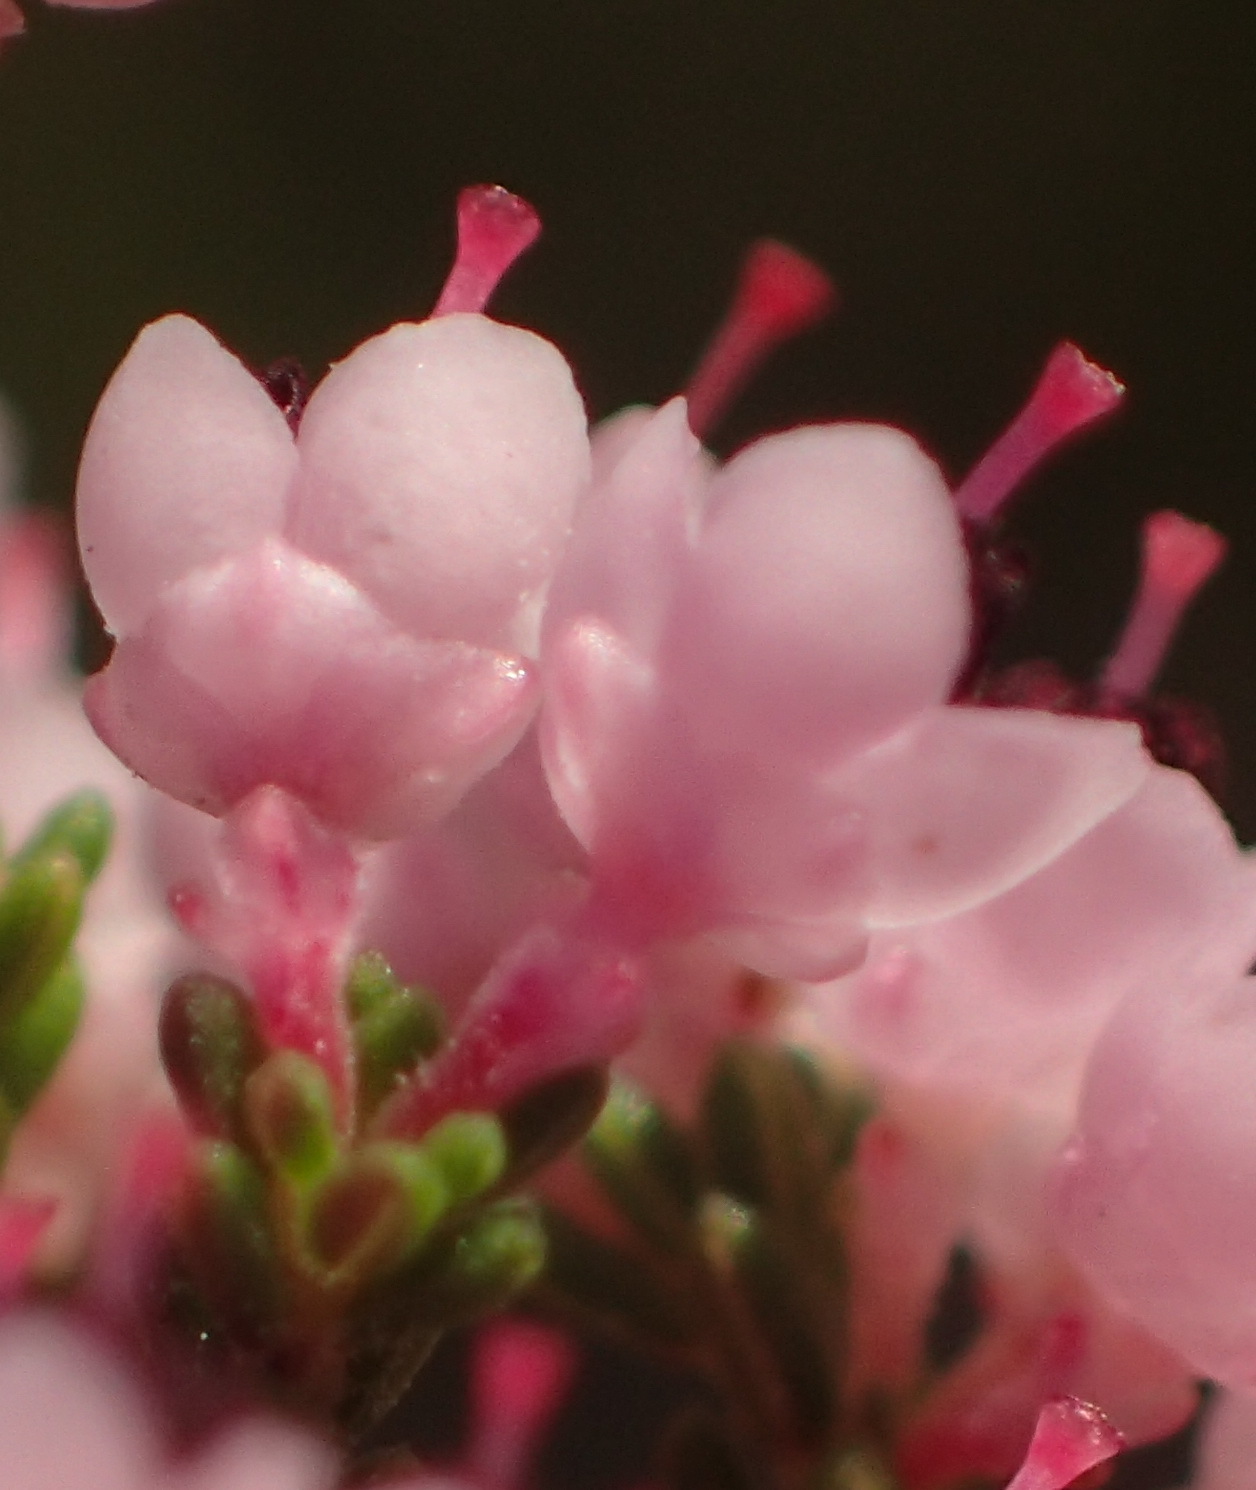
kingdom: Plantae
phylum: Tracheophyta
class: Magnoliopsida
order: Ericales
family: Ericaceae
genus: Erica
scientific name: Erica sparsa
